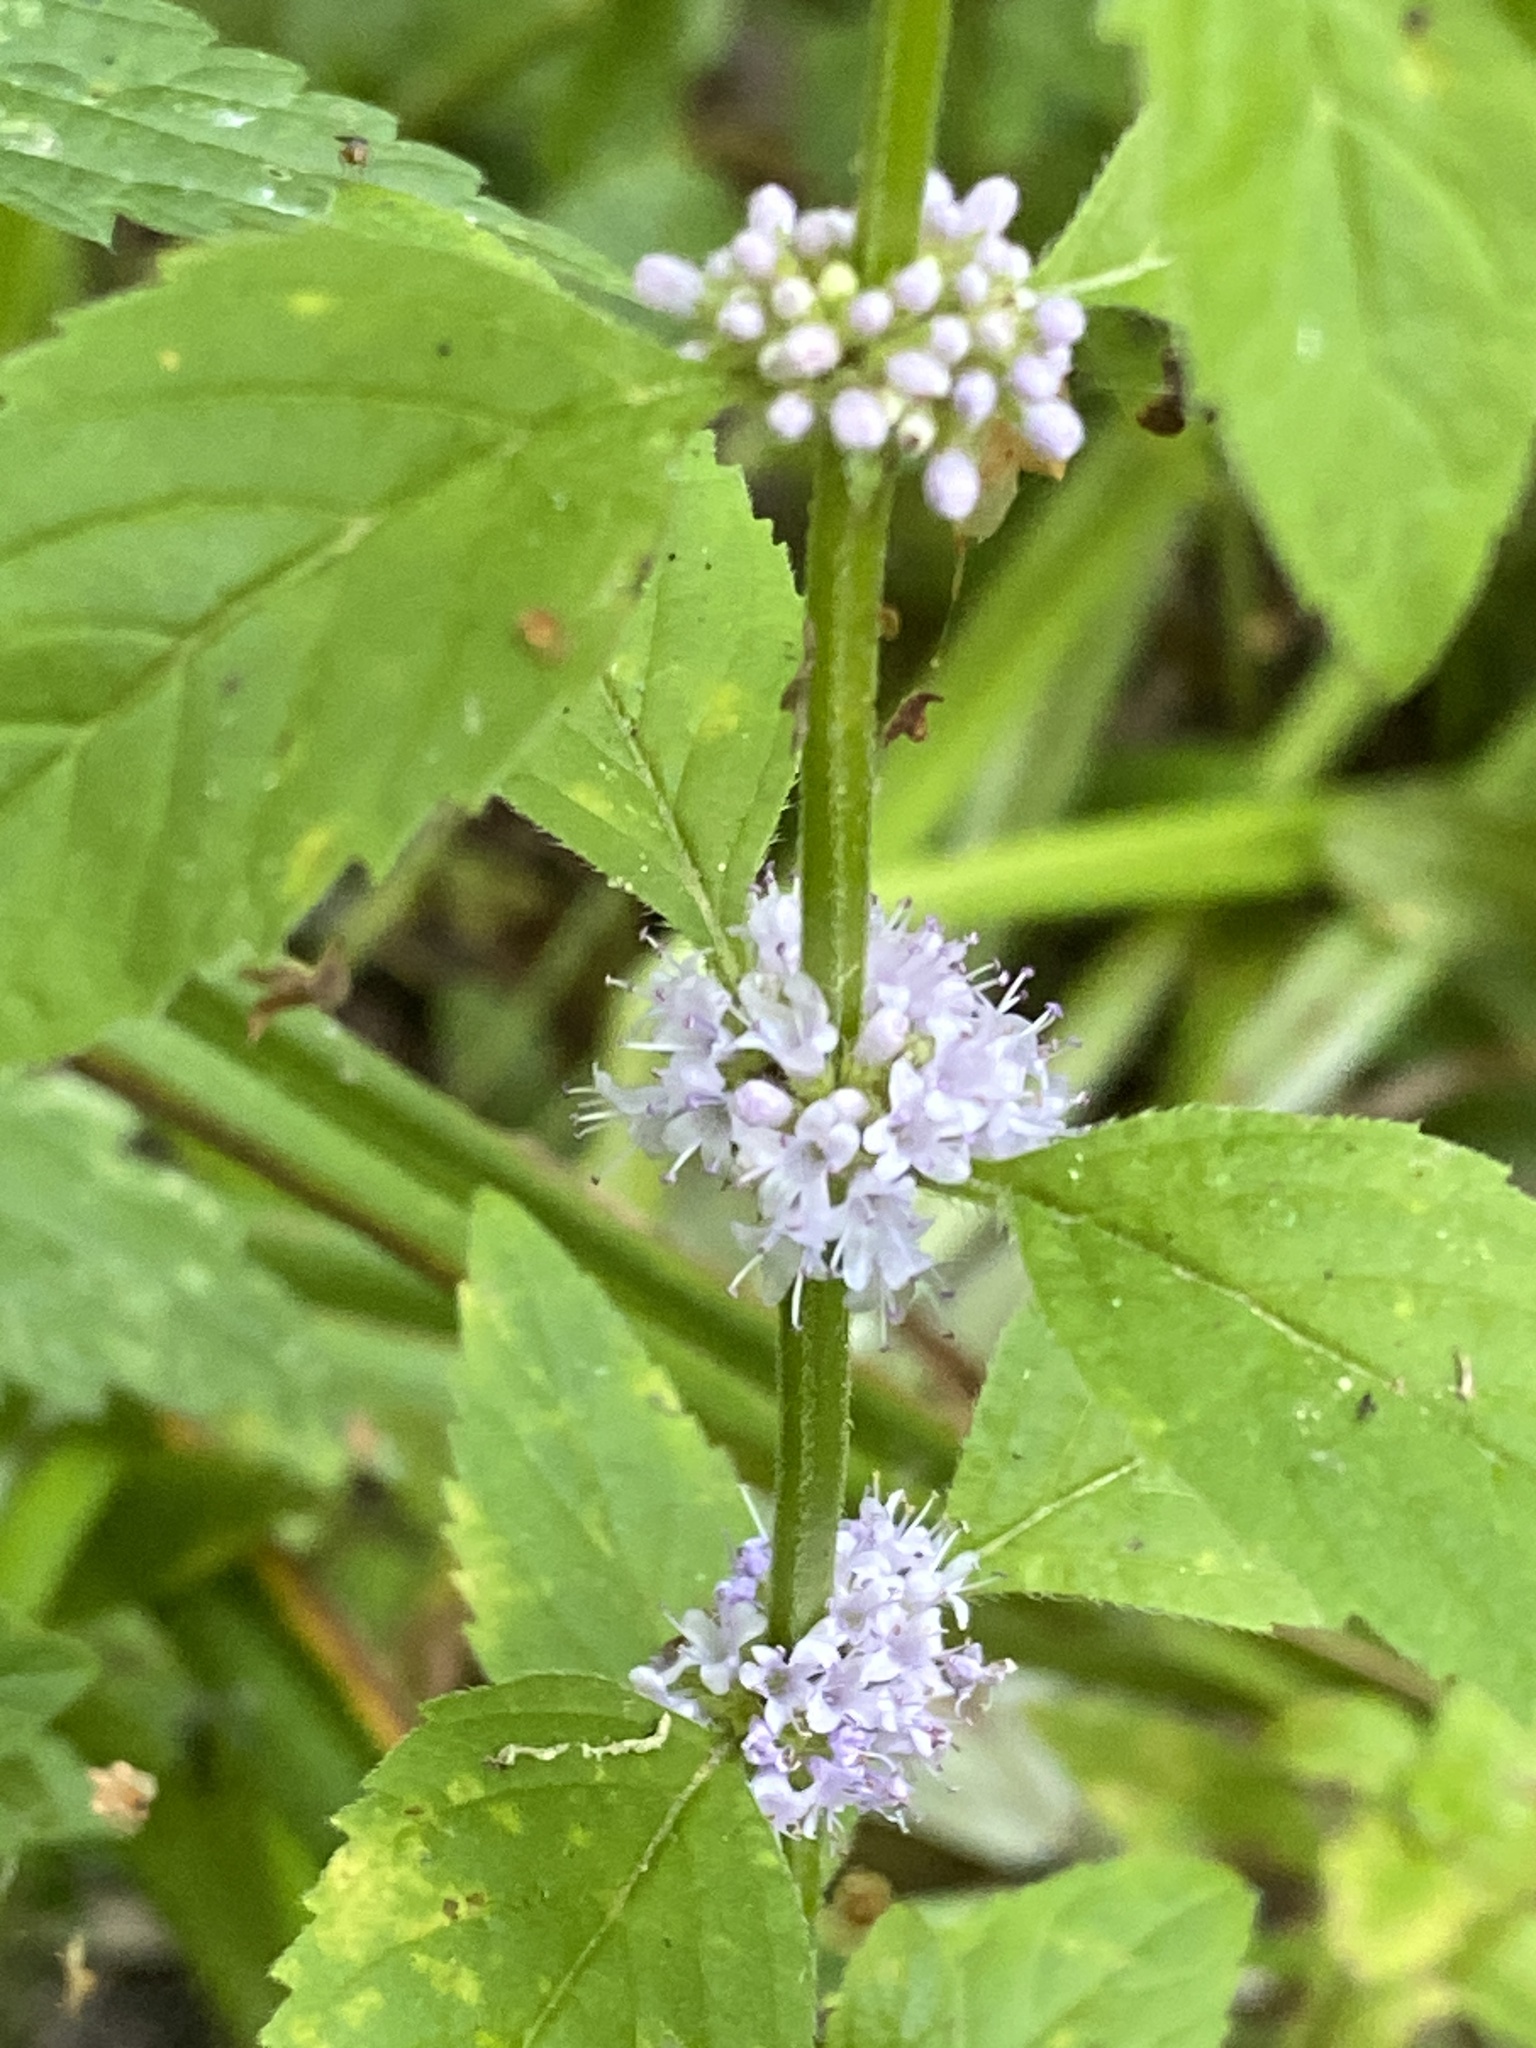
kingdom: Plantae
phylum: Tracheophyta
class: Magnoliopsida
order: Lamiales
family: Lamiaceae
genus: Mentha
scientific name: Mentha arvensis
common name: Corn mint
